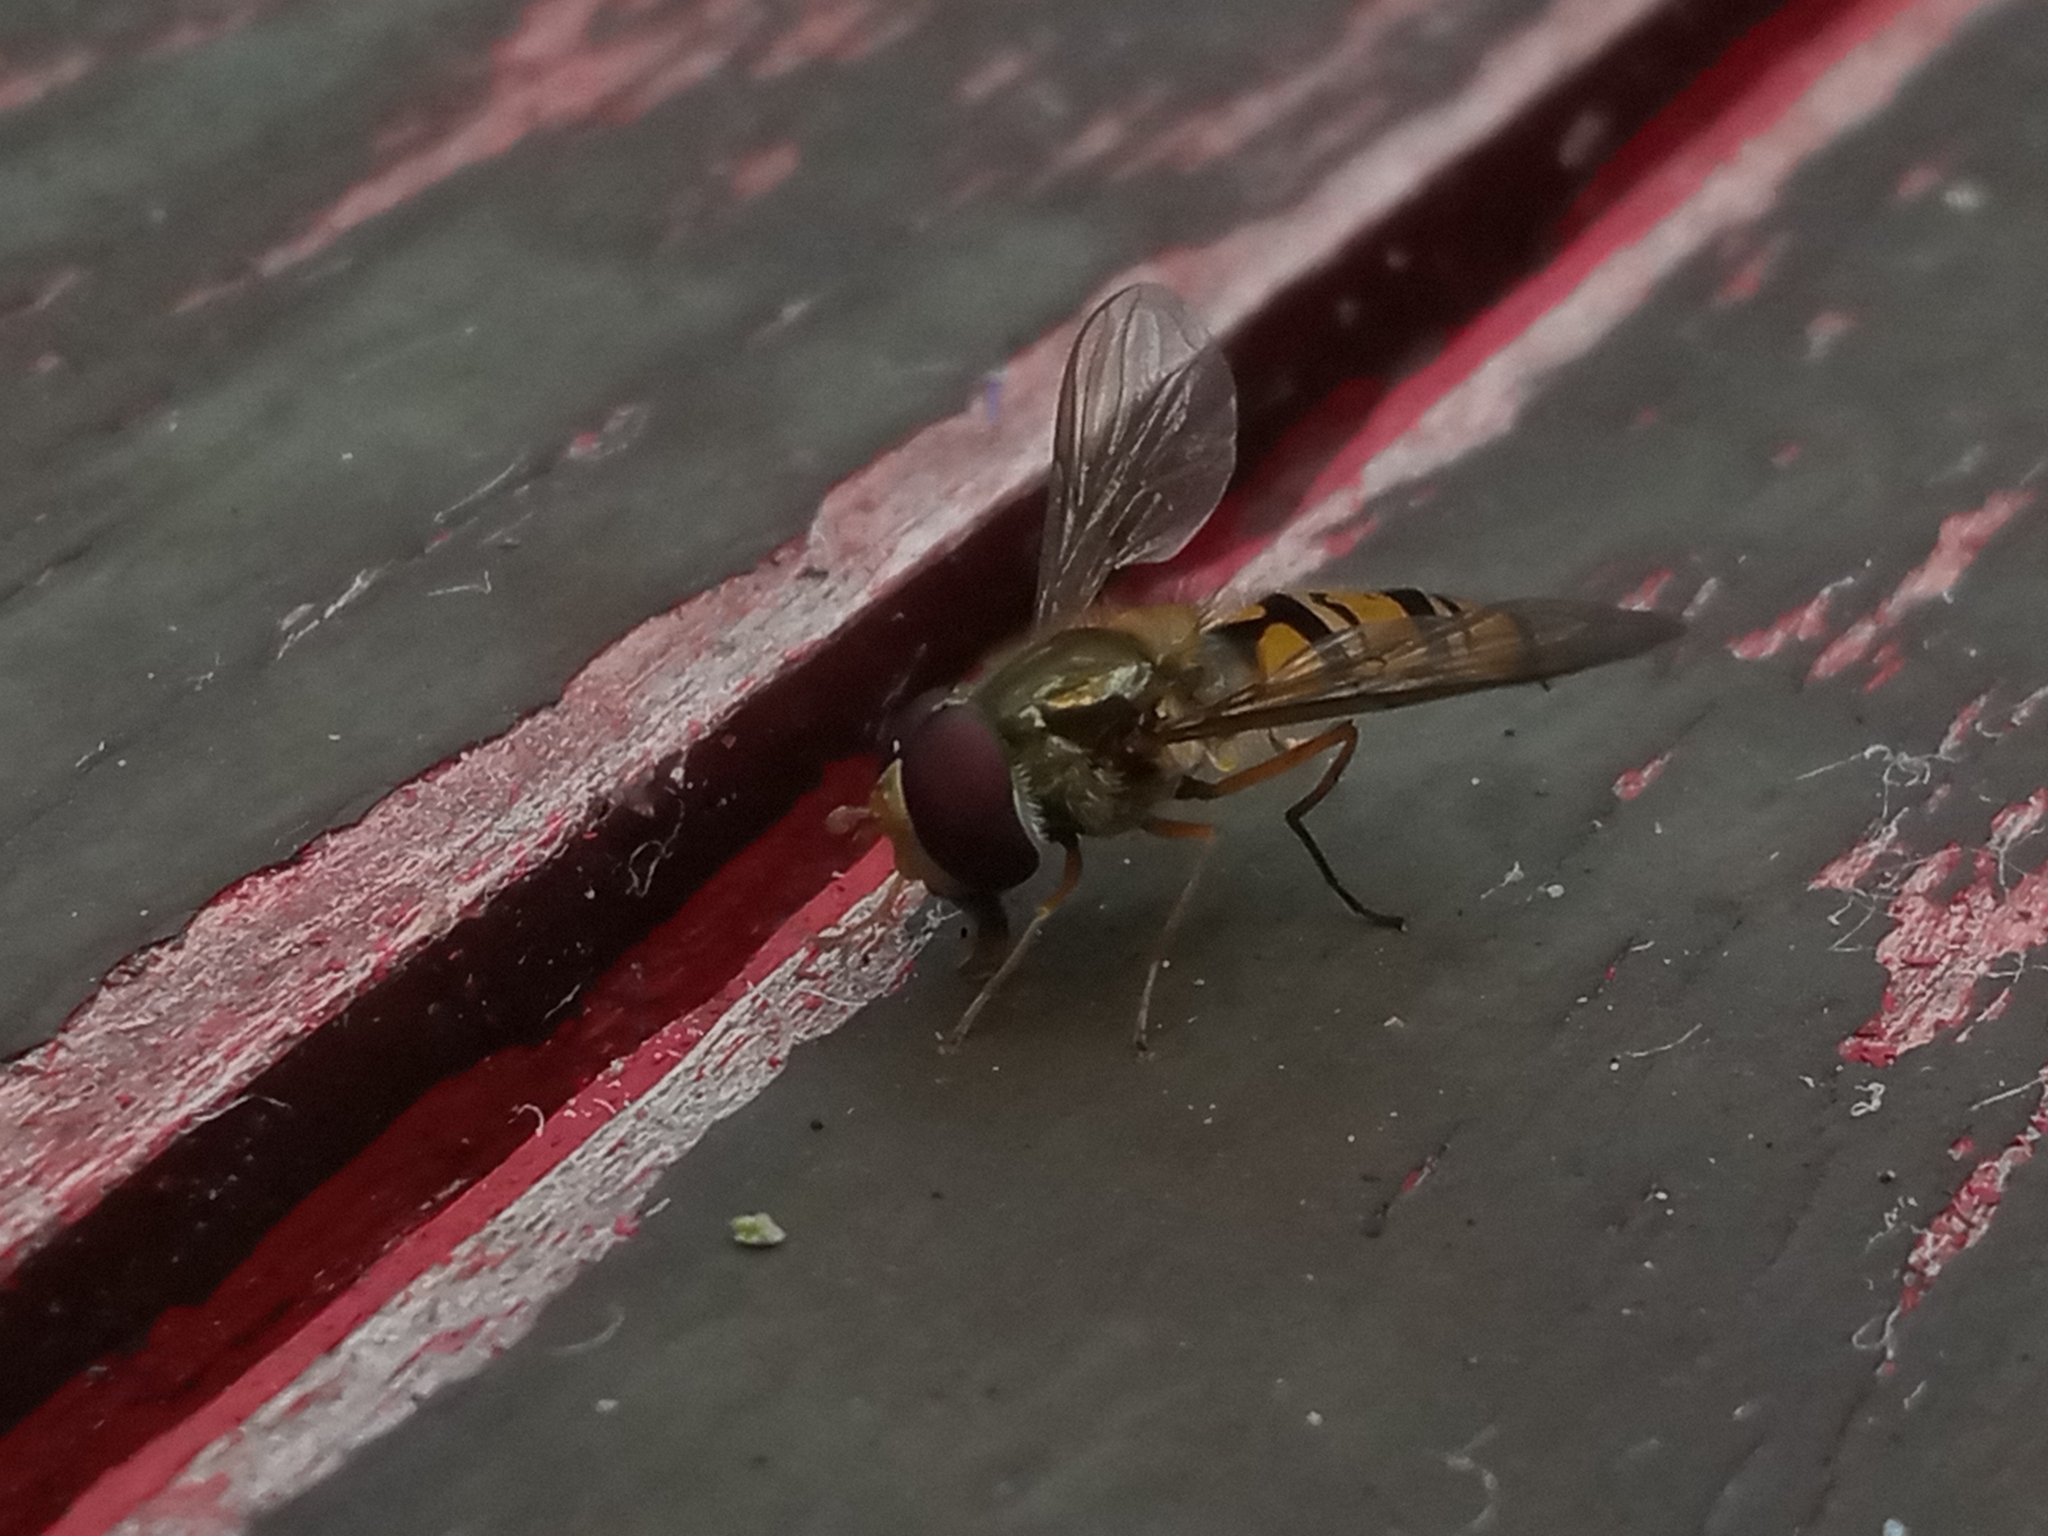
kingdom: Animalia
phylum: Arthropoda
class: Insecta
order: Diptera
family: Syrphidae
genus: Episyrphus
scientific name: Episyrphus balteatus
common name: Marmalade hoverfly
